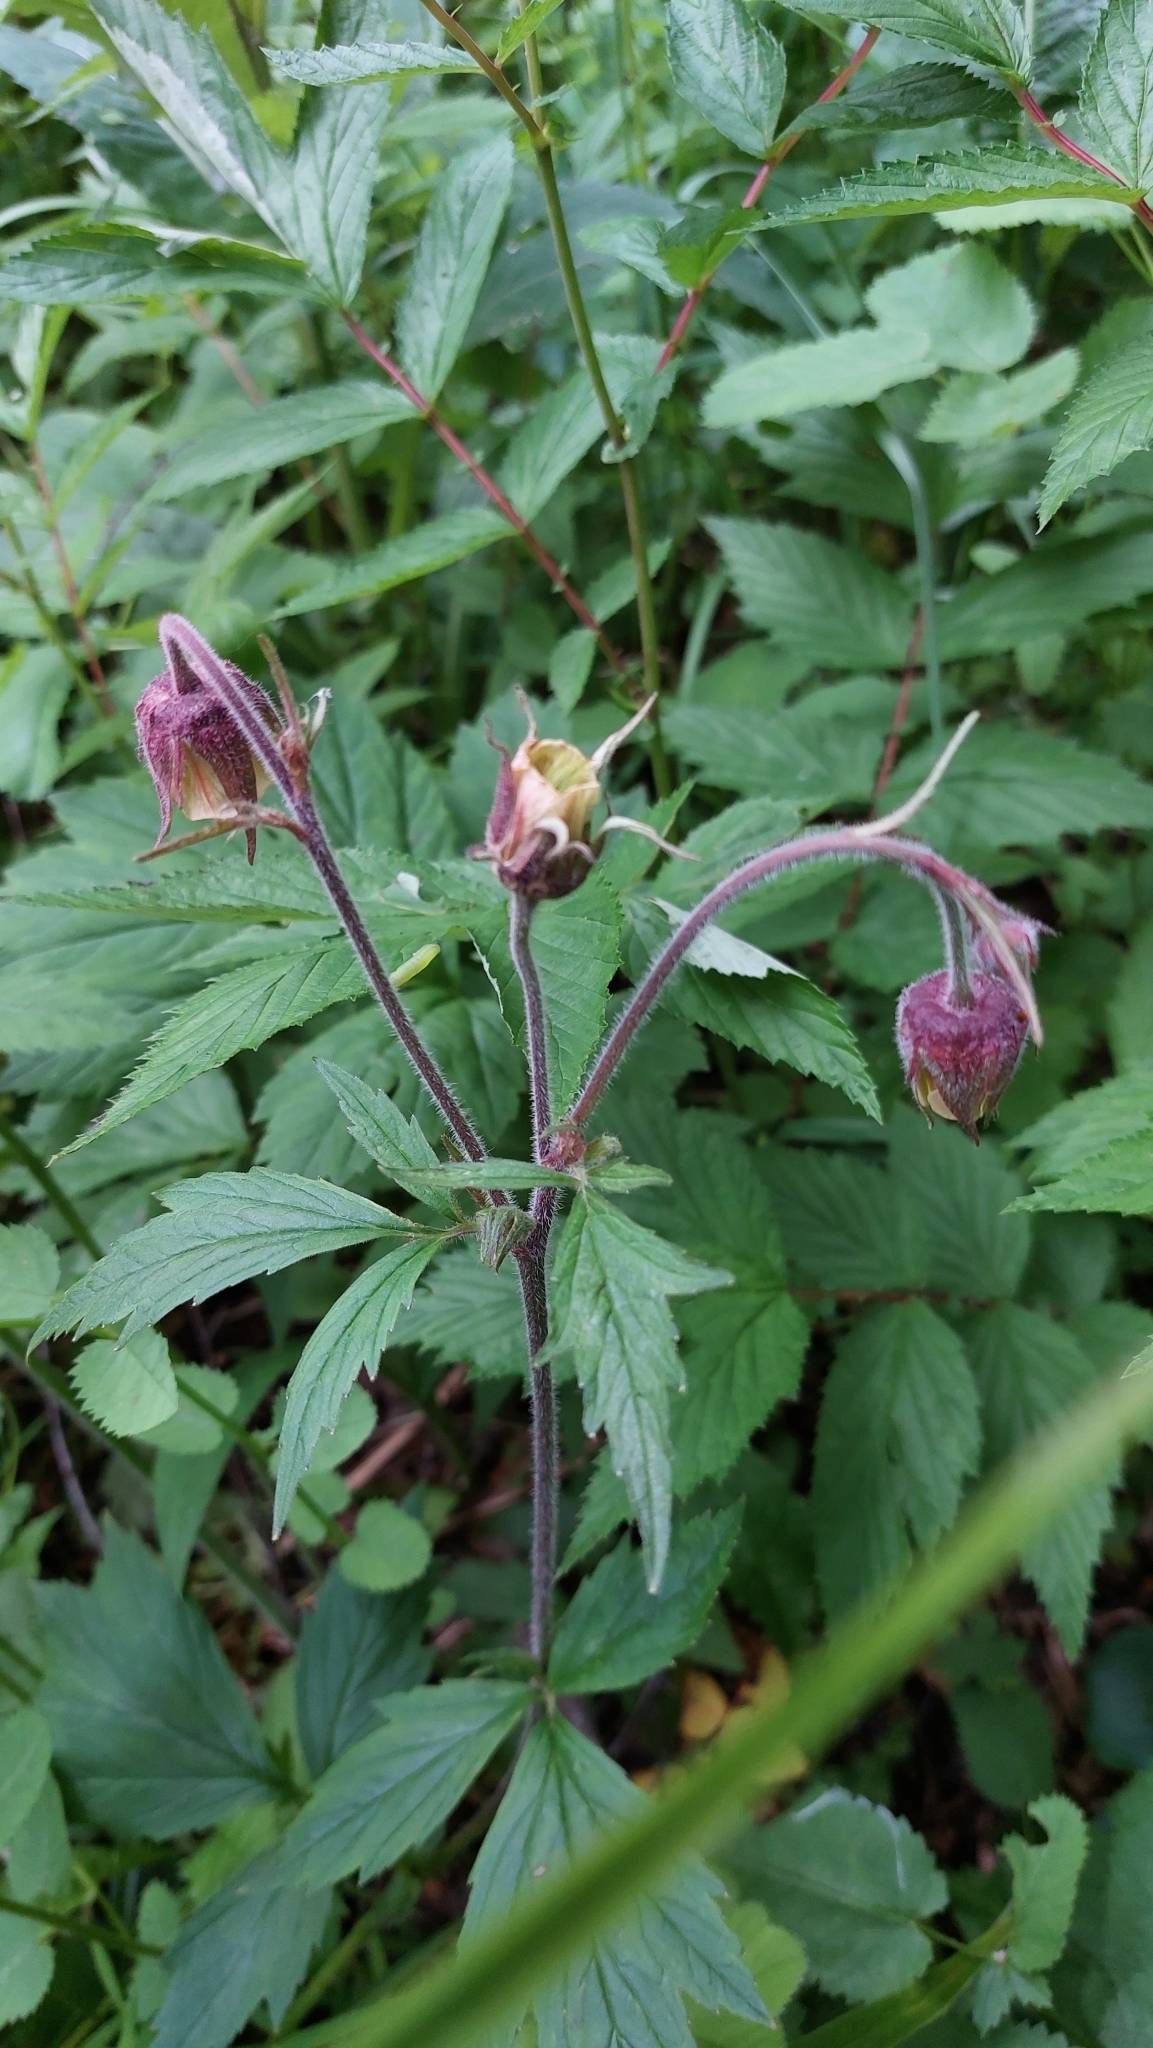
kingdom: Plantae
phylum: Tracheophyta
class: Magnoliopsida
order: Rosales
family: Rosaceae
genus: Geum
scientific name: Geum rivale
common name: Water avens
